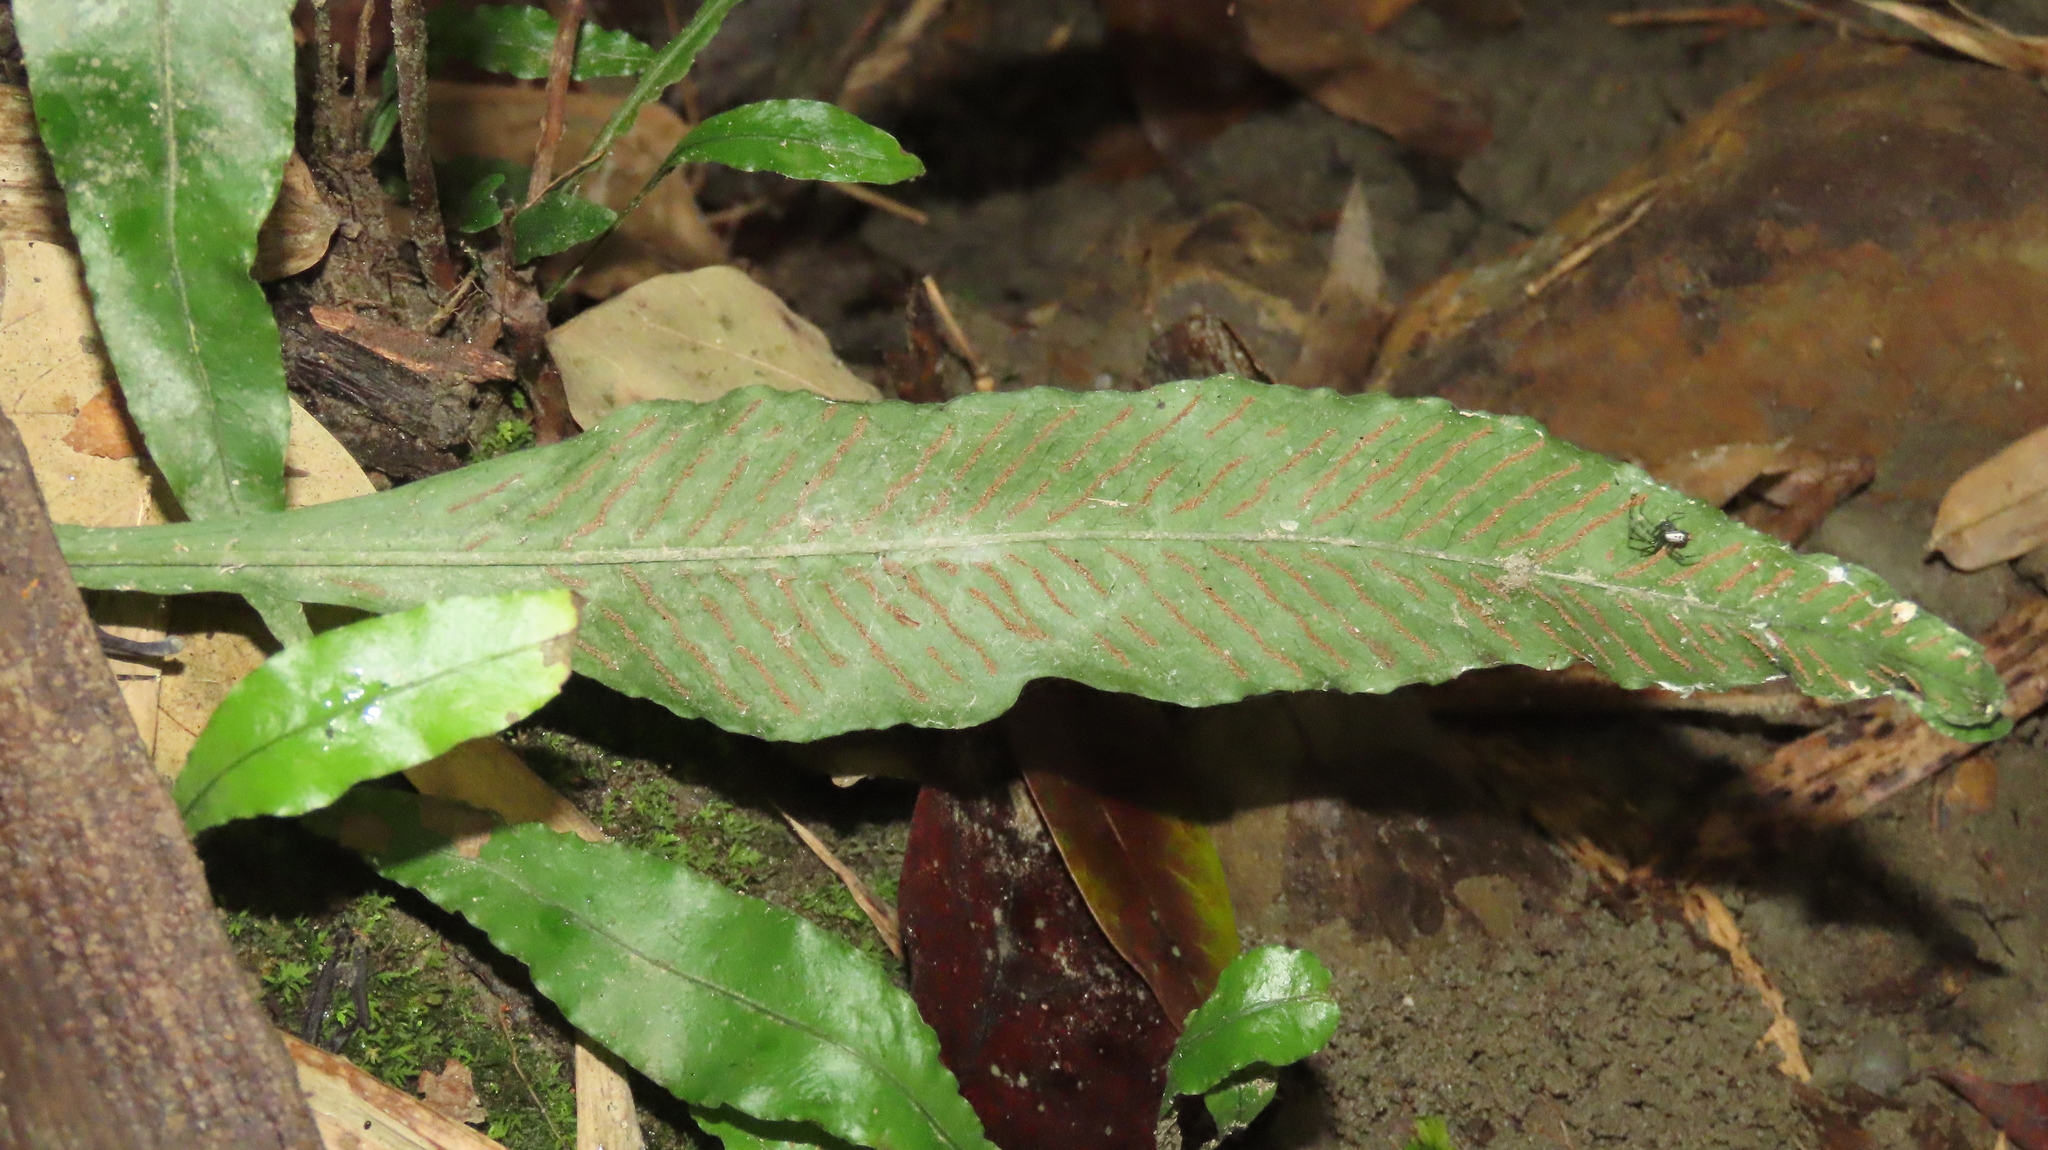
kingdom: Plantae
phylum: Tracheophyta
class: Polypodiopsida
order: Polypodiales
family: Polypodiaceae
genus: Leptochilus
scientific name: Leptochilus wrightii
